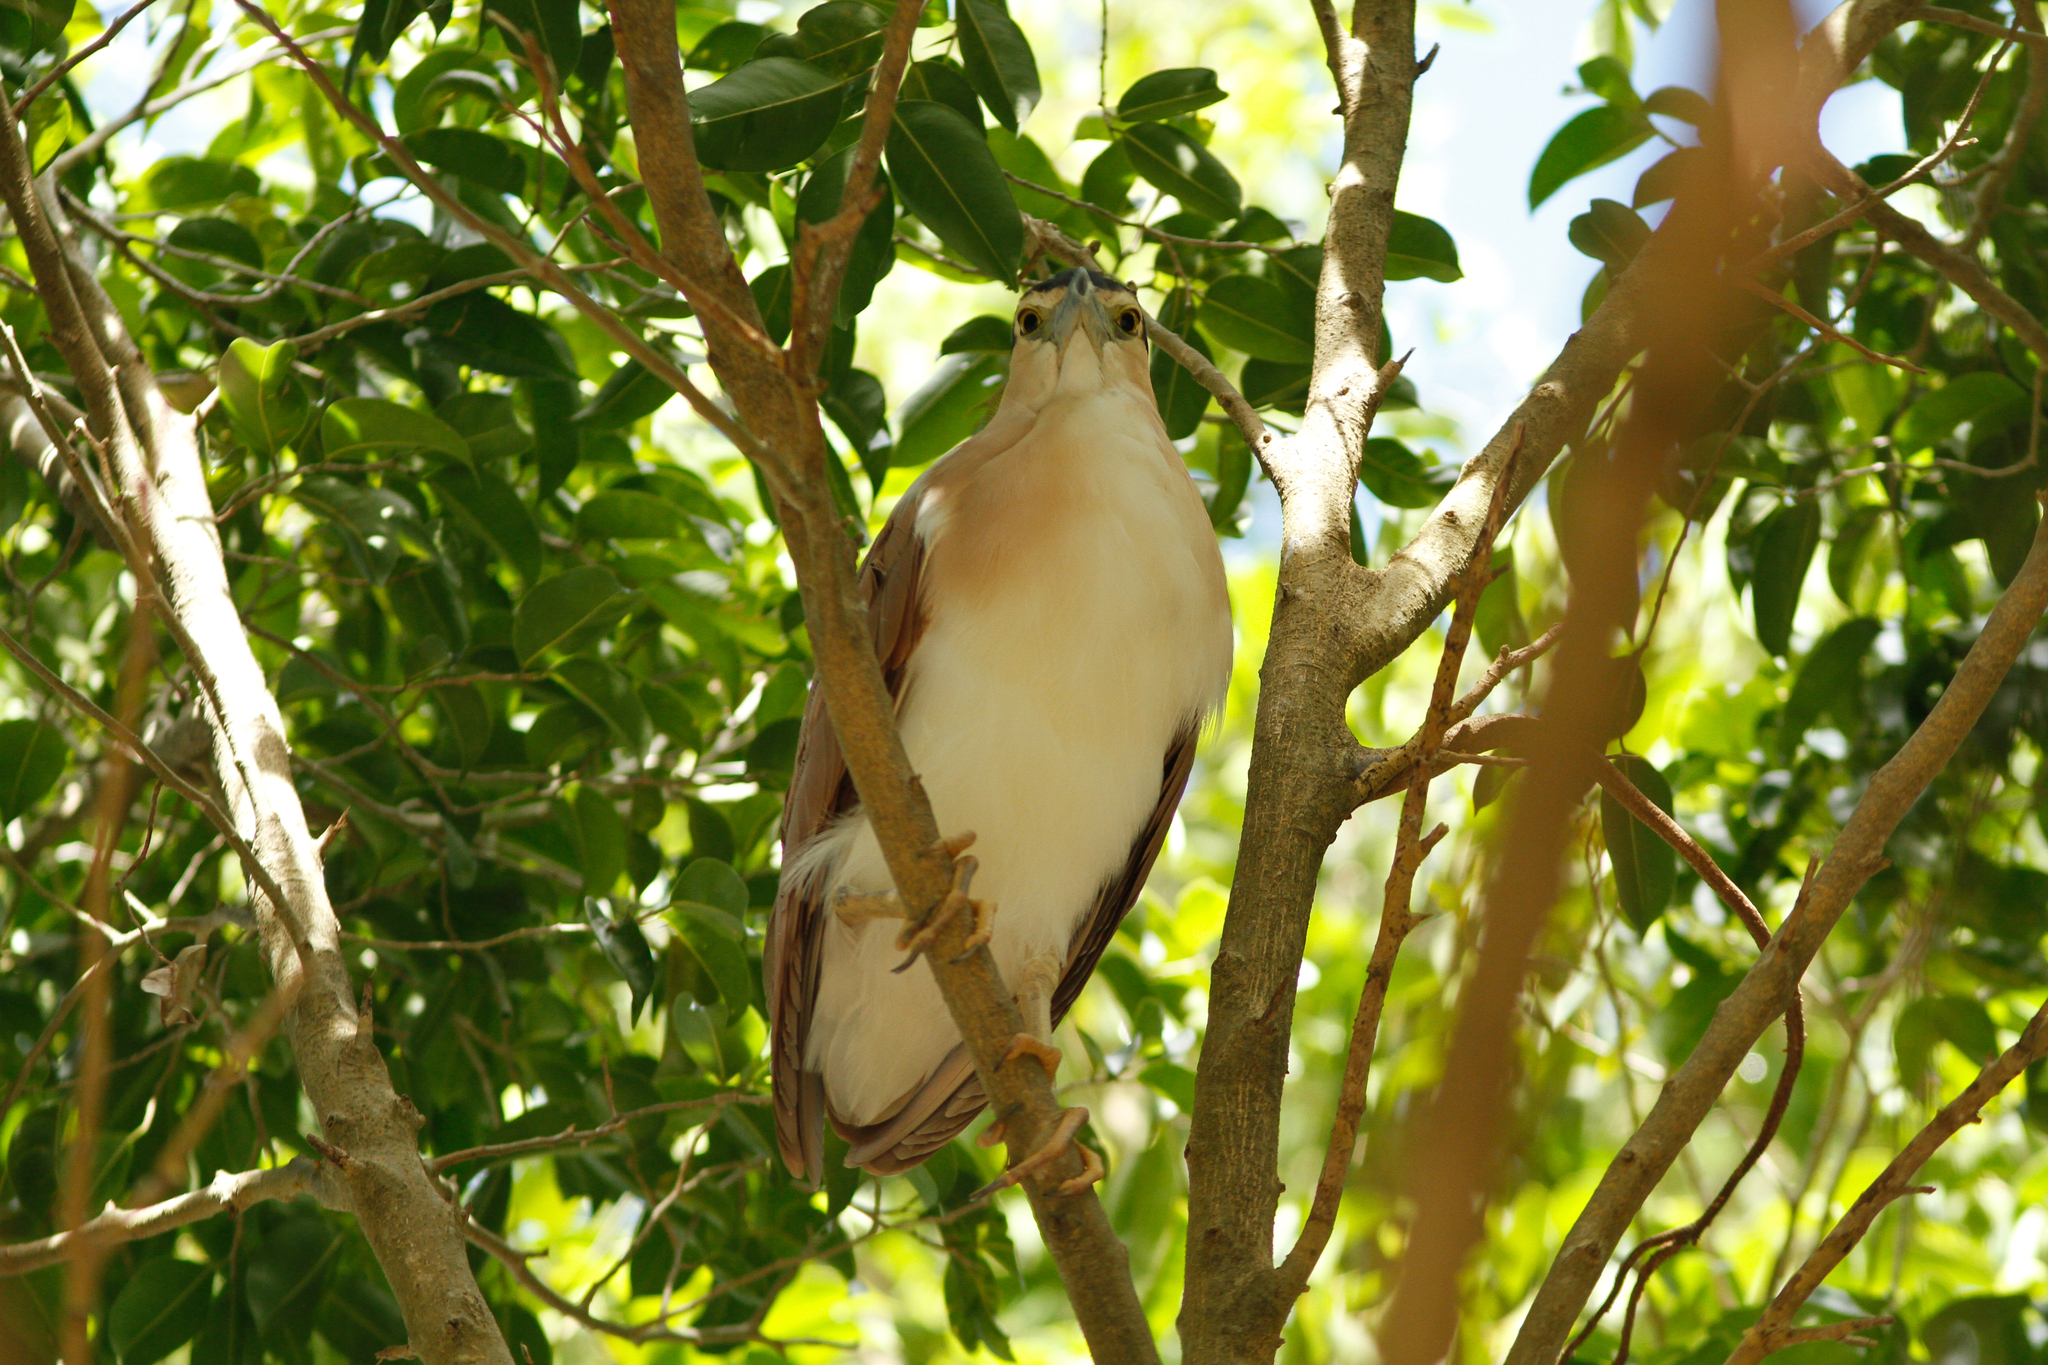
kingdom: Animalia
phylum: Chordata
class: Aves
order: Pelecaniformes
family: Ardeidae
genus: Nycticorax
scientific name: Nycticorax caledonicus
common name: Rufous night-heron
